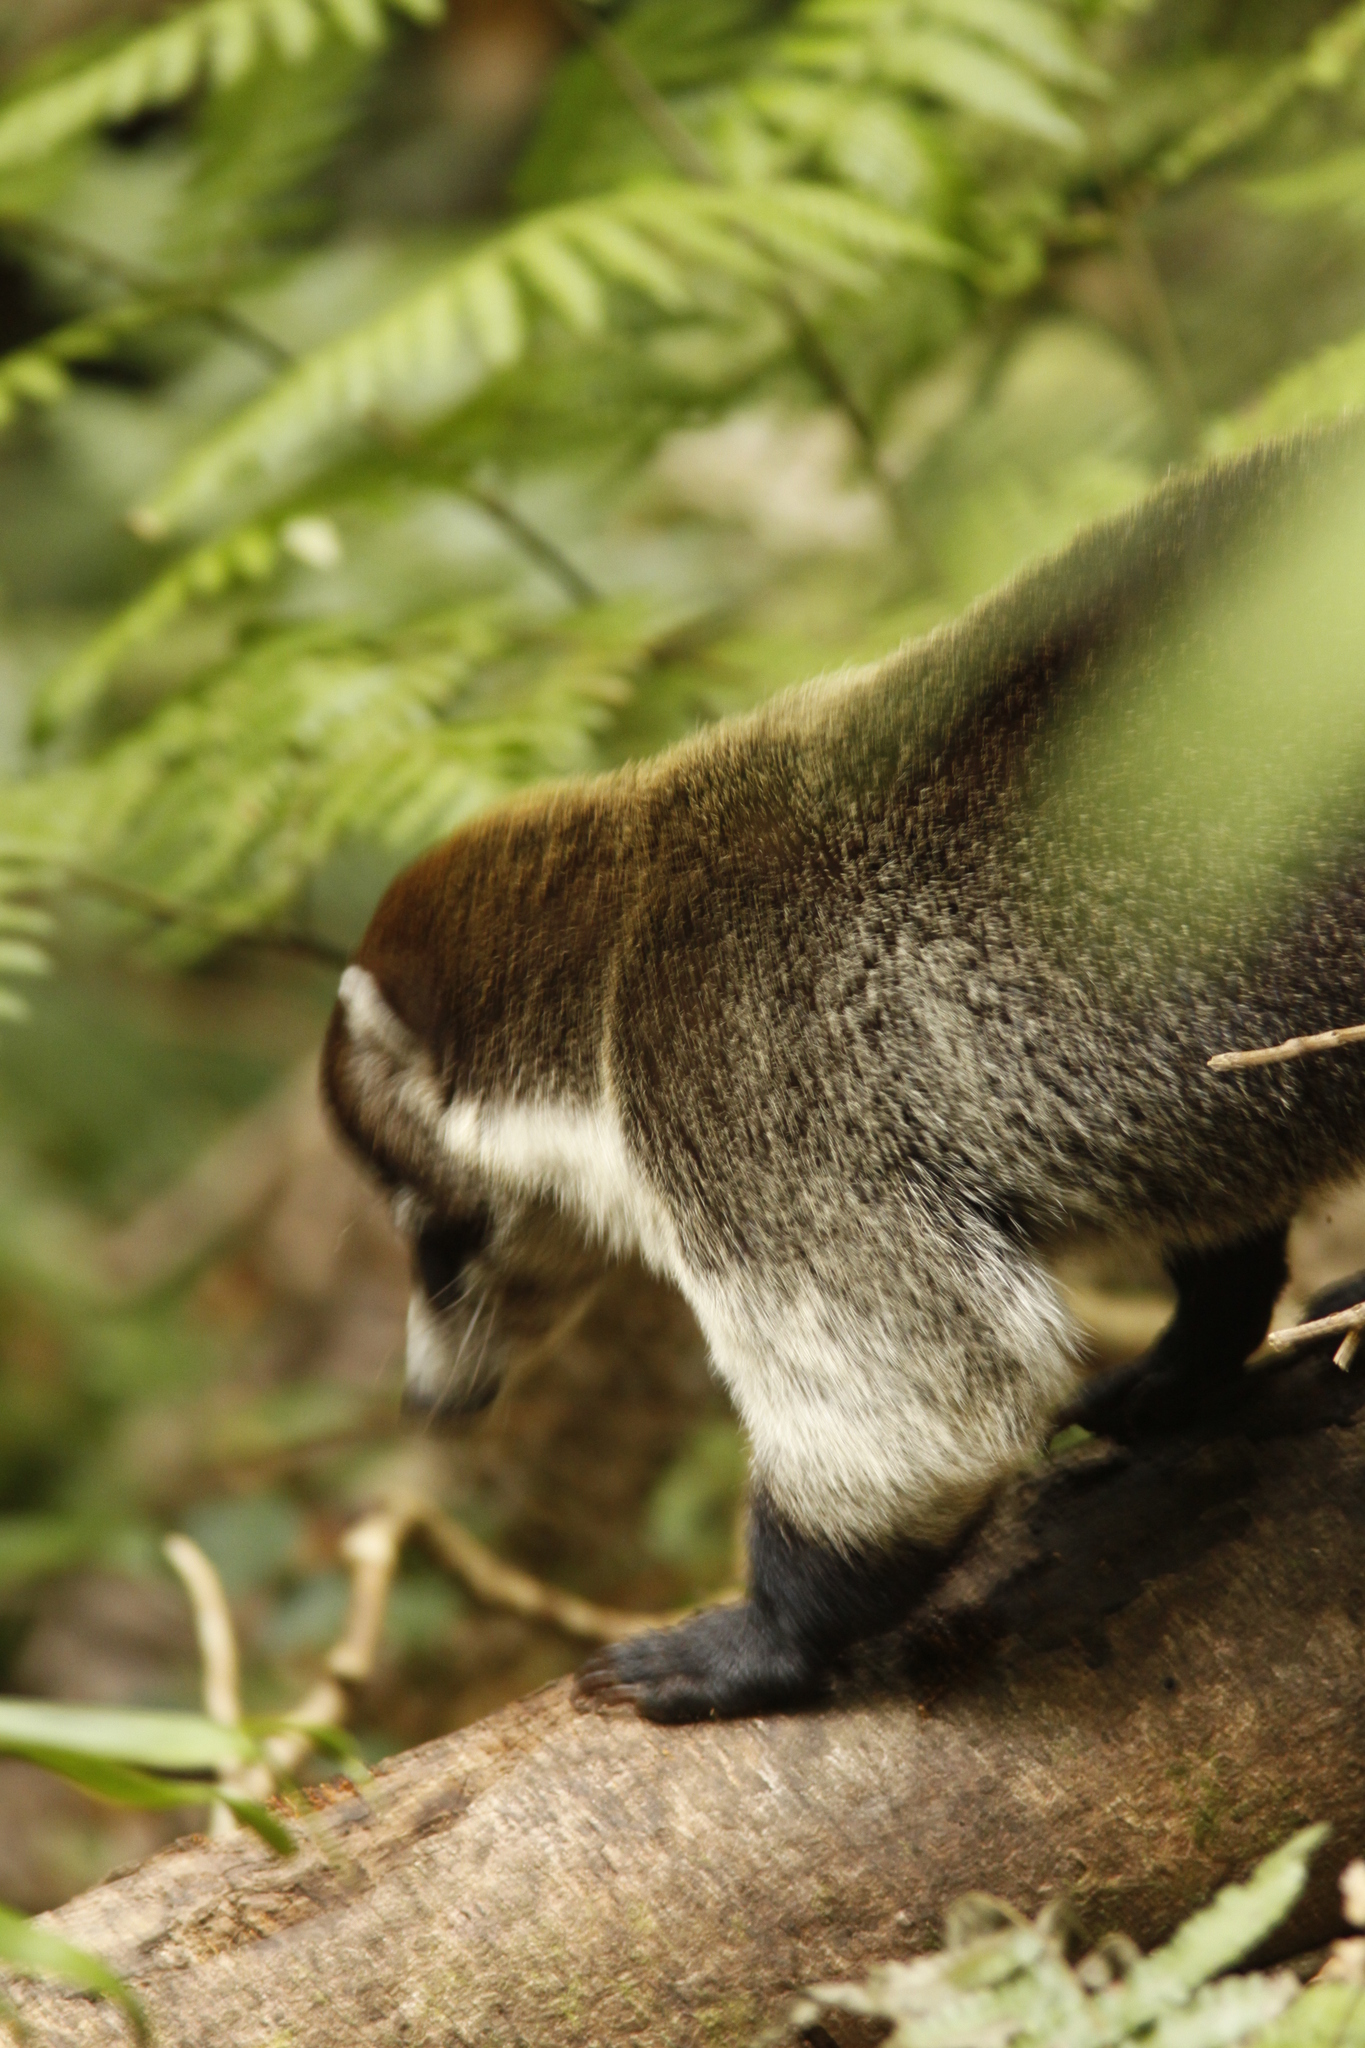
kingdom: Animalia
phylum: Chordata
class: Mammalia
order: Carnivora
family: Procyonidae
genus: Nasua
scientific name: Nasua narica
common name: White-nosed coati
